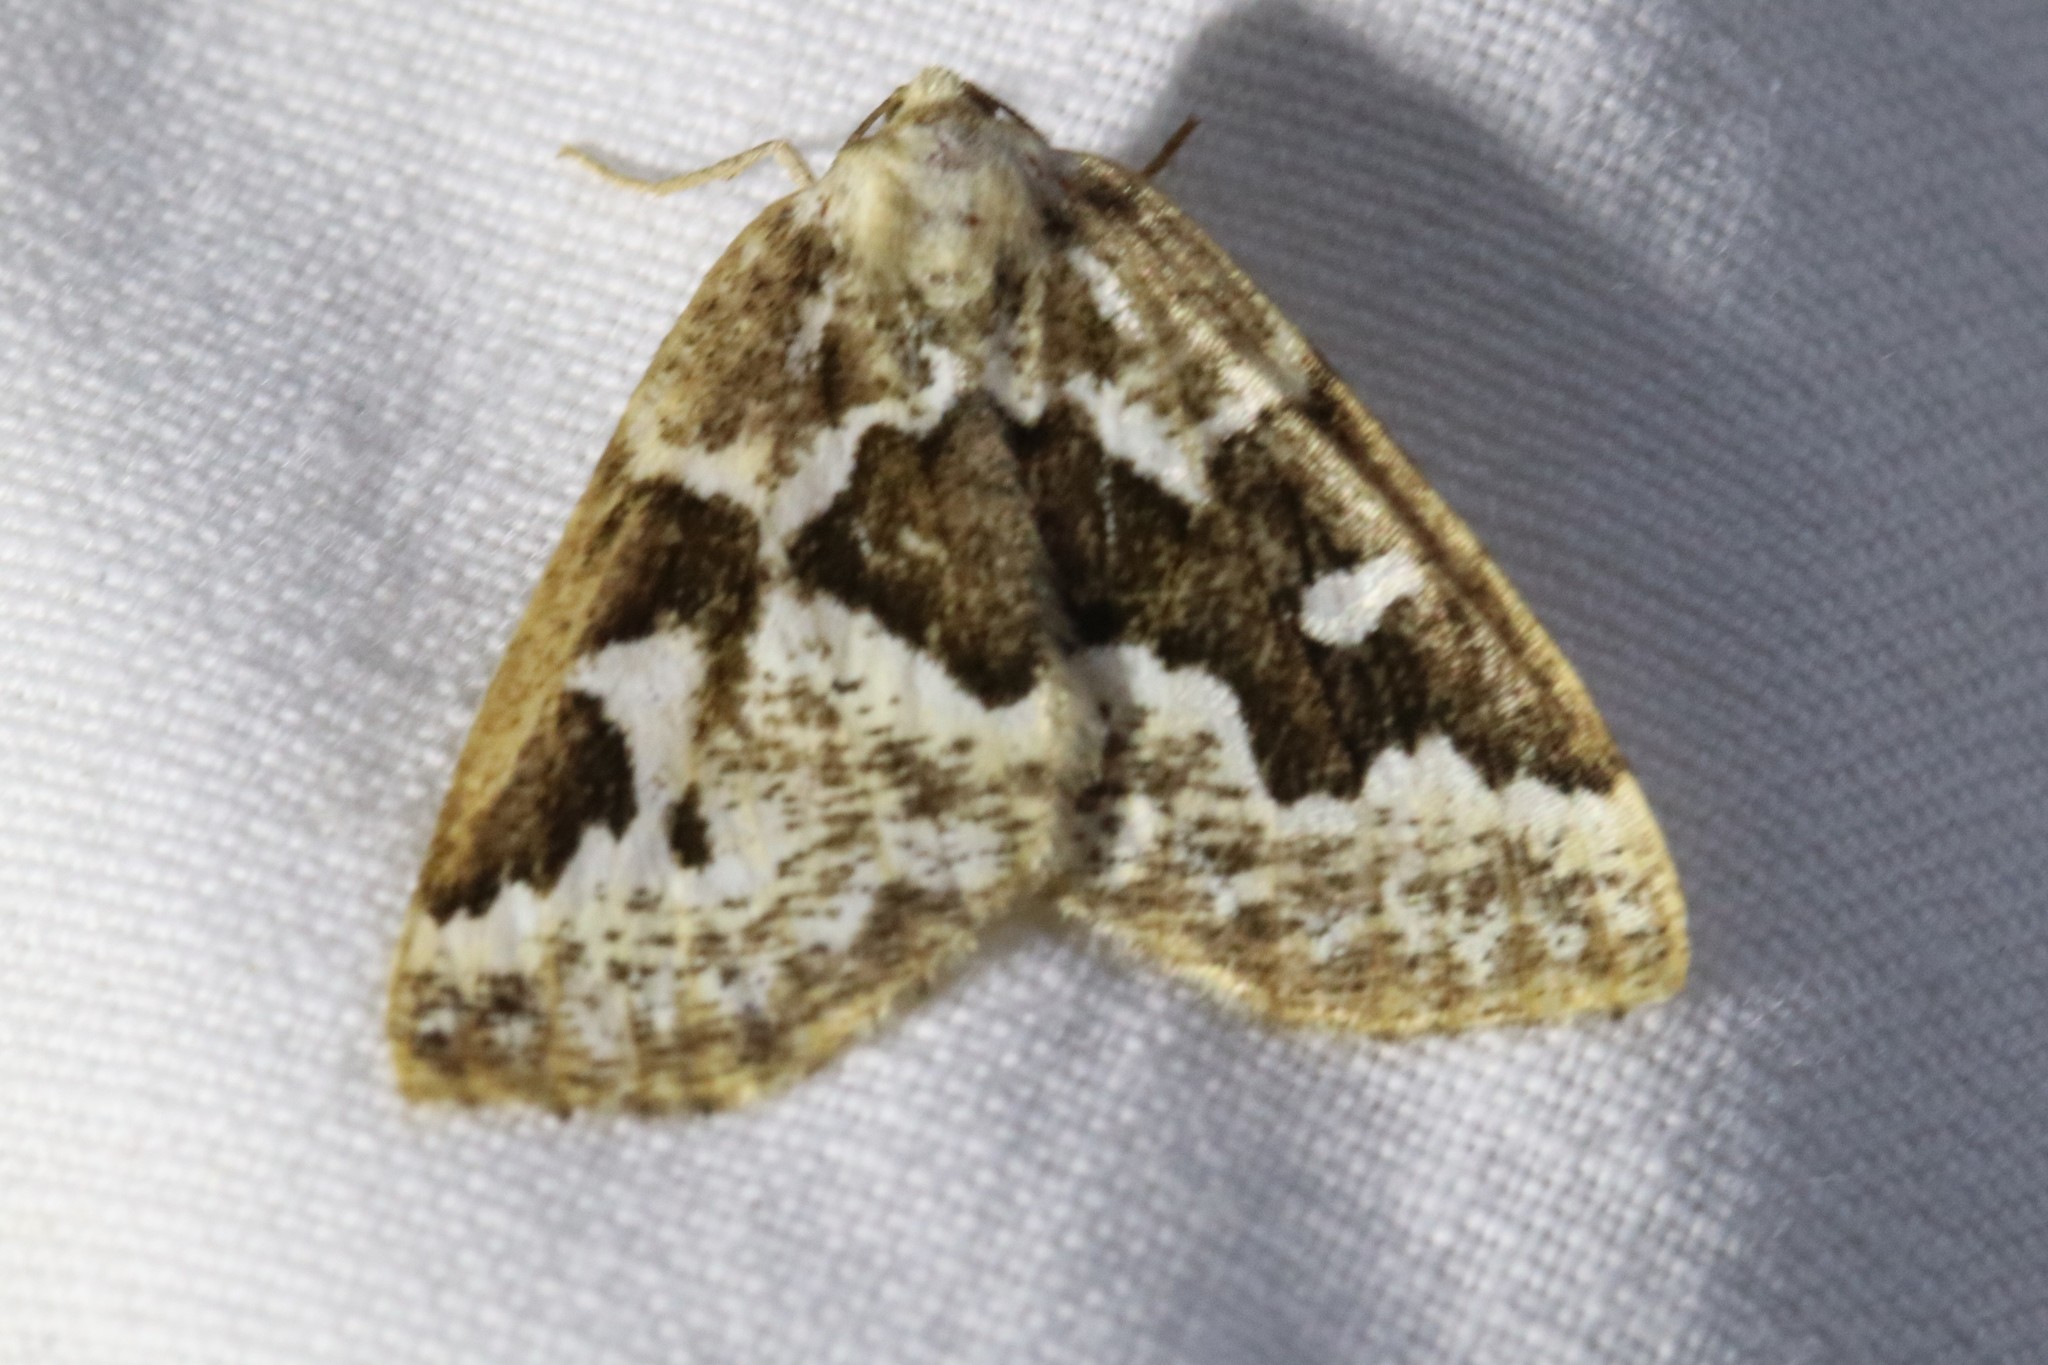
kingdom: Animalia
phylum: Arthropoda
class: Insecta
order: Lepidoptera
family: Geometridae
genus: Caripeta
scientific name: Caripeta divisata
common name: Gray spruce looper
